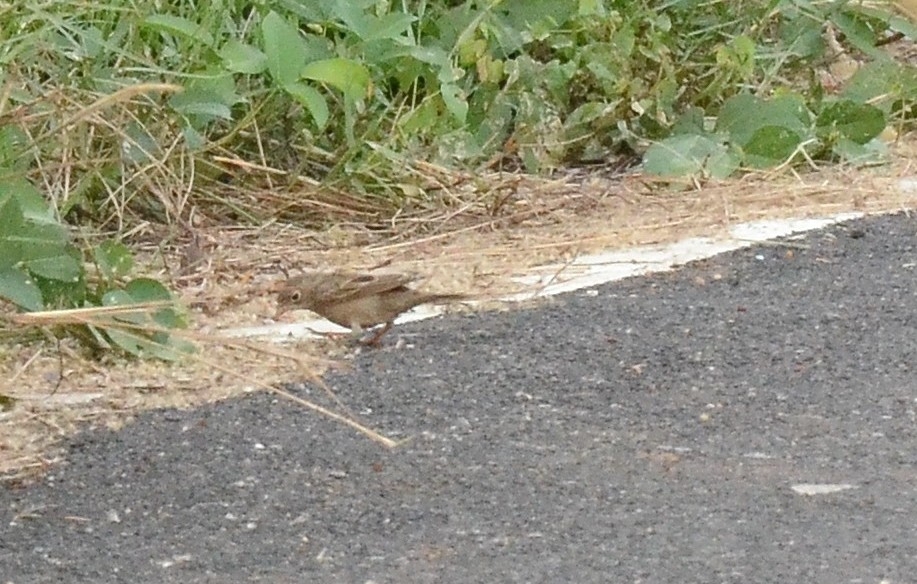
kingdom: Animalia
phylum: Chordata
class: Aves
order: Passeriformes
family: Emberizidae
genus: Emberiza
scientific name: Emberiza buchanani
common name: Grey-necked bunting
